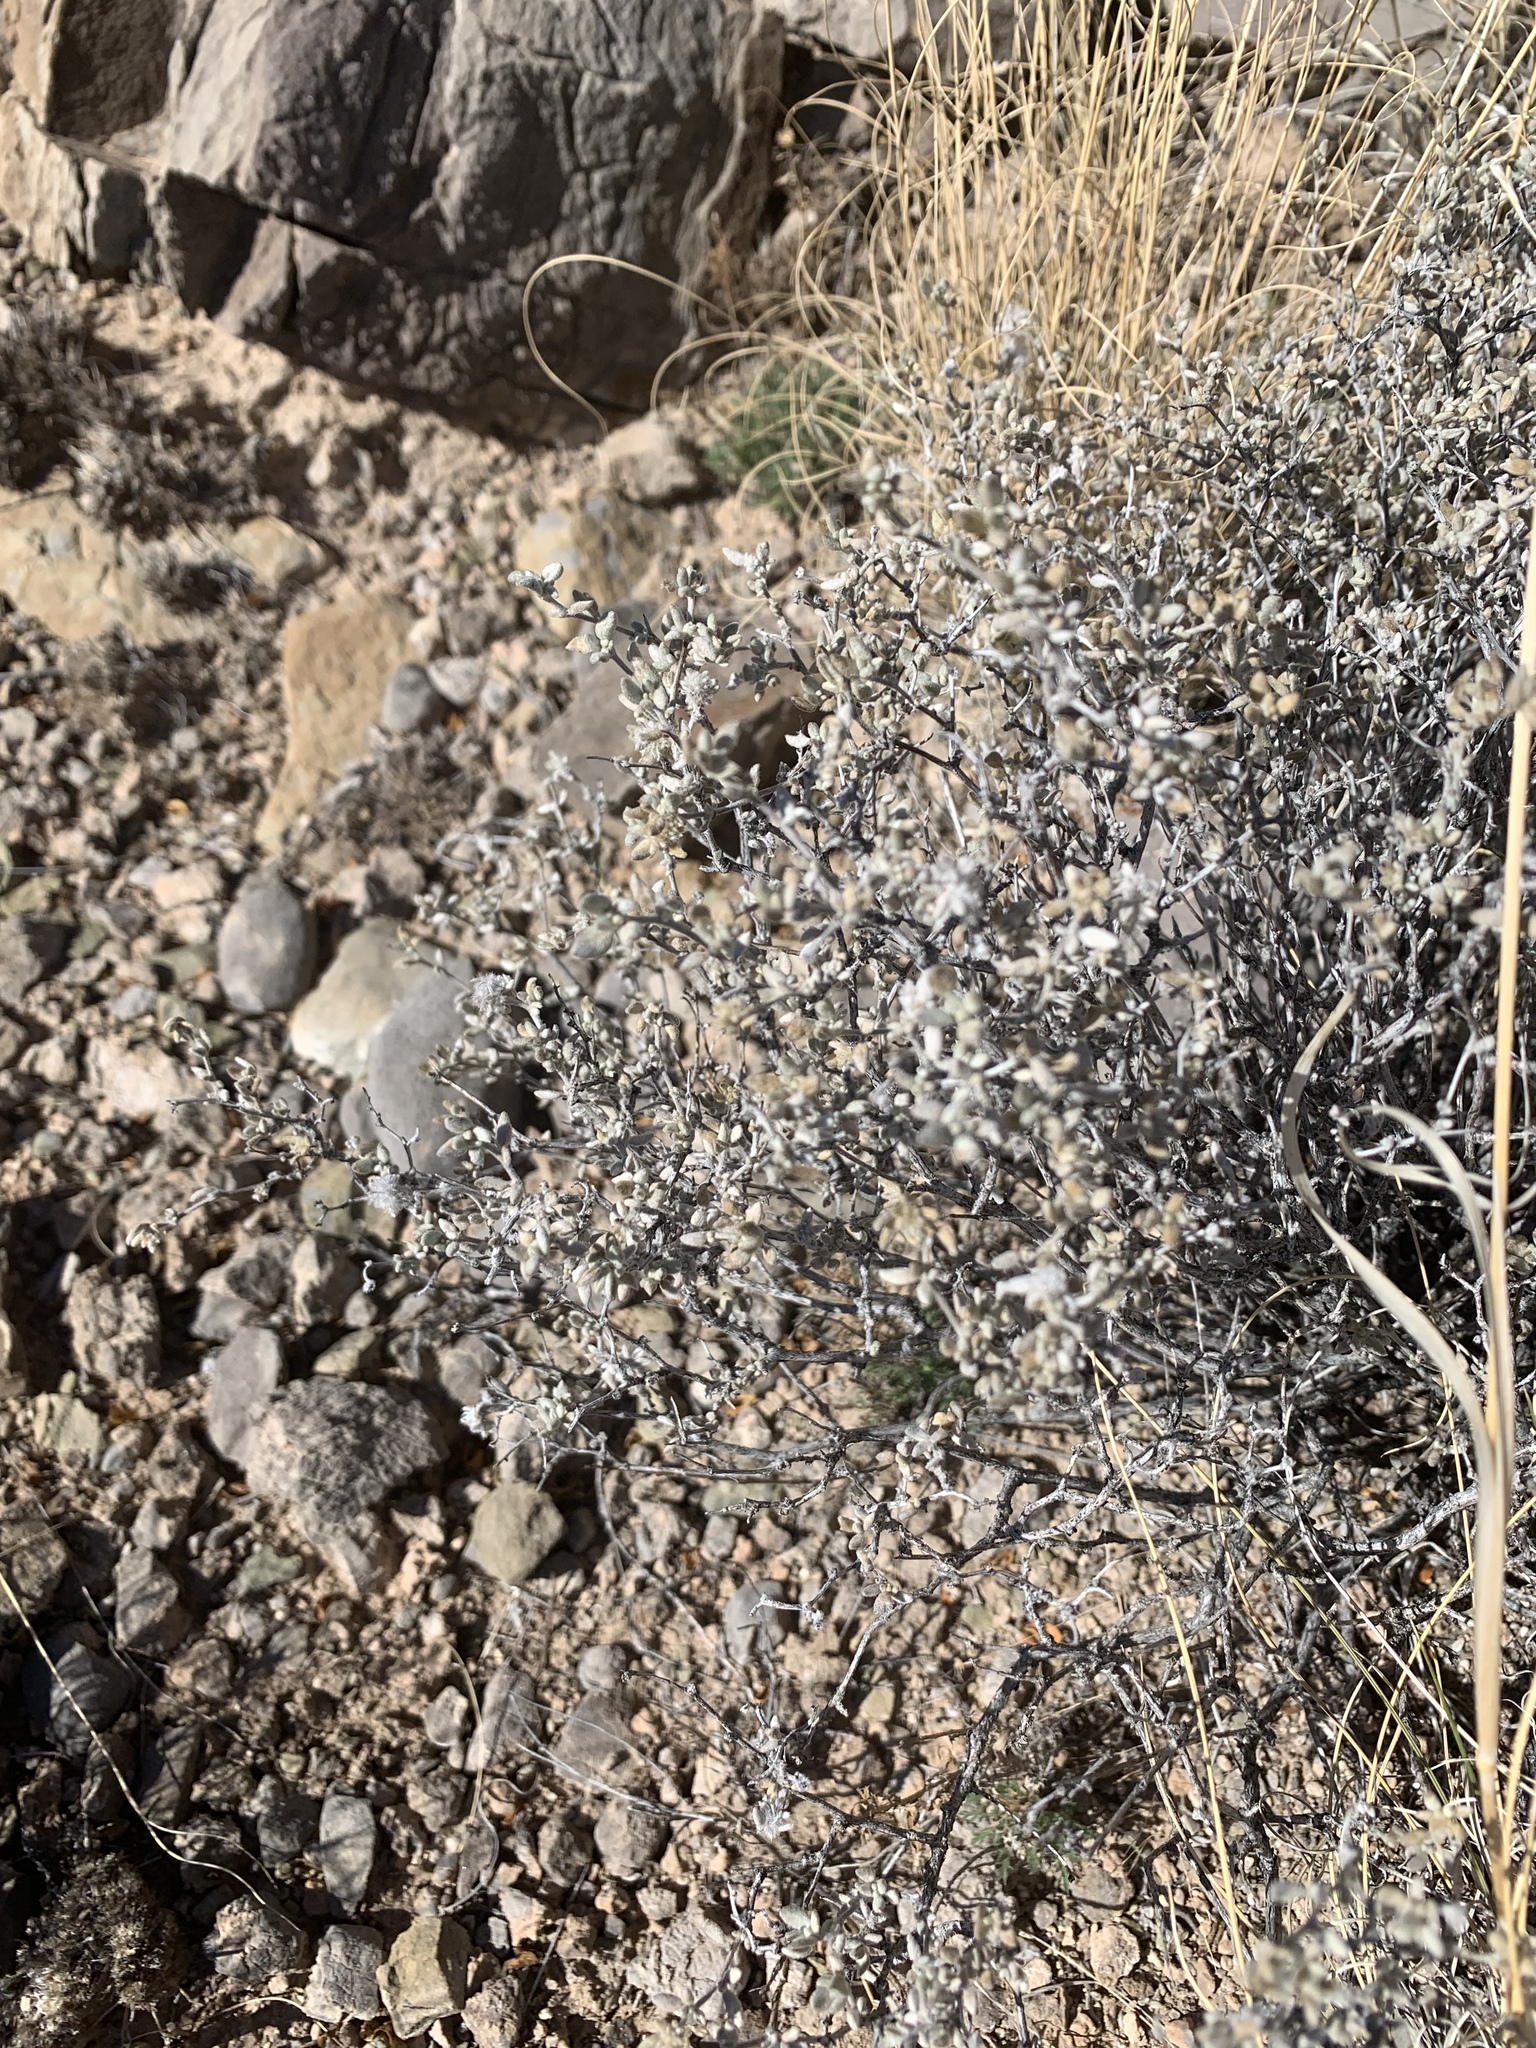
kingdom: Plantae
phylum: Tracheophyta
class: Magnoliopsida
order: Boraginales
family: Ehretiaceae
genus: Tiquilia
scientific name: Tiquilia greggii
